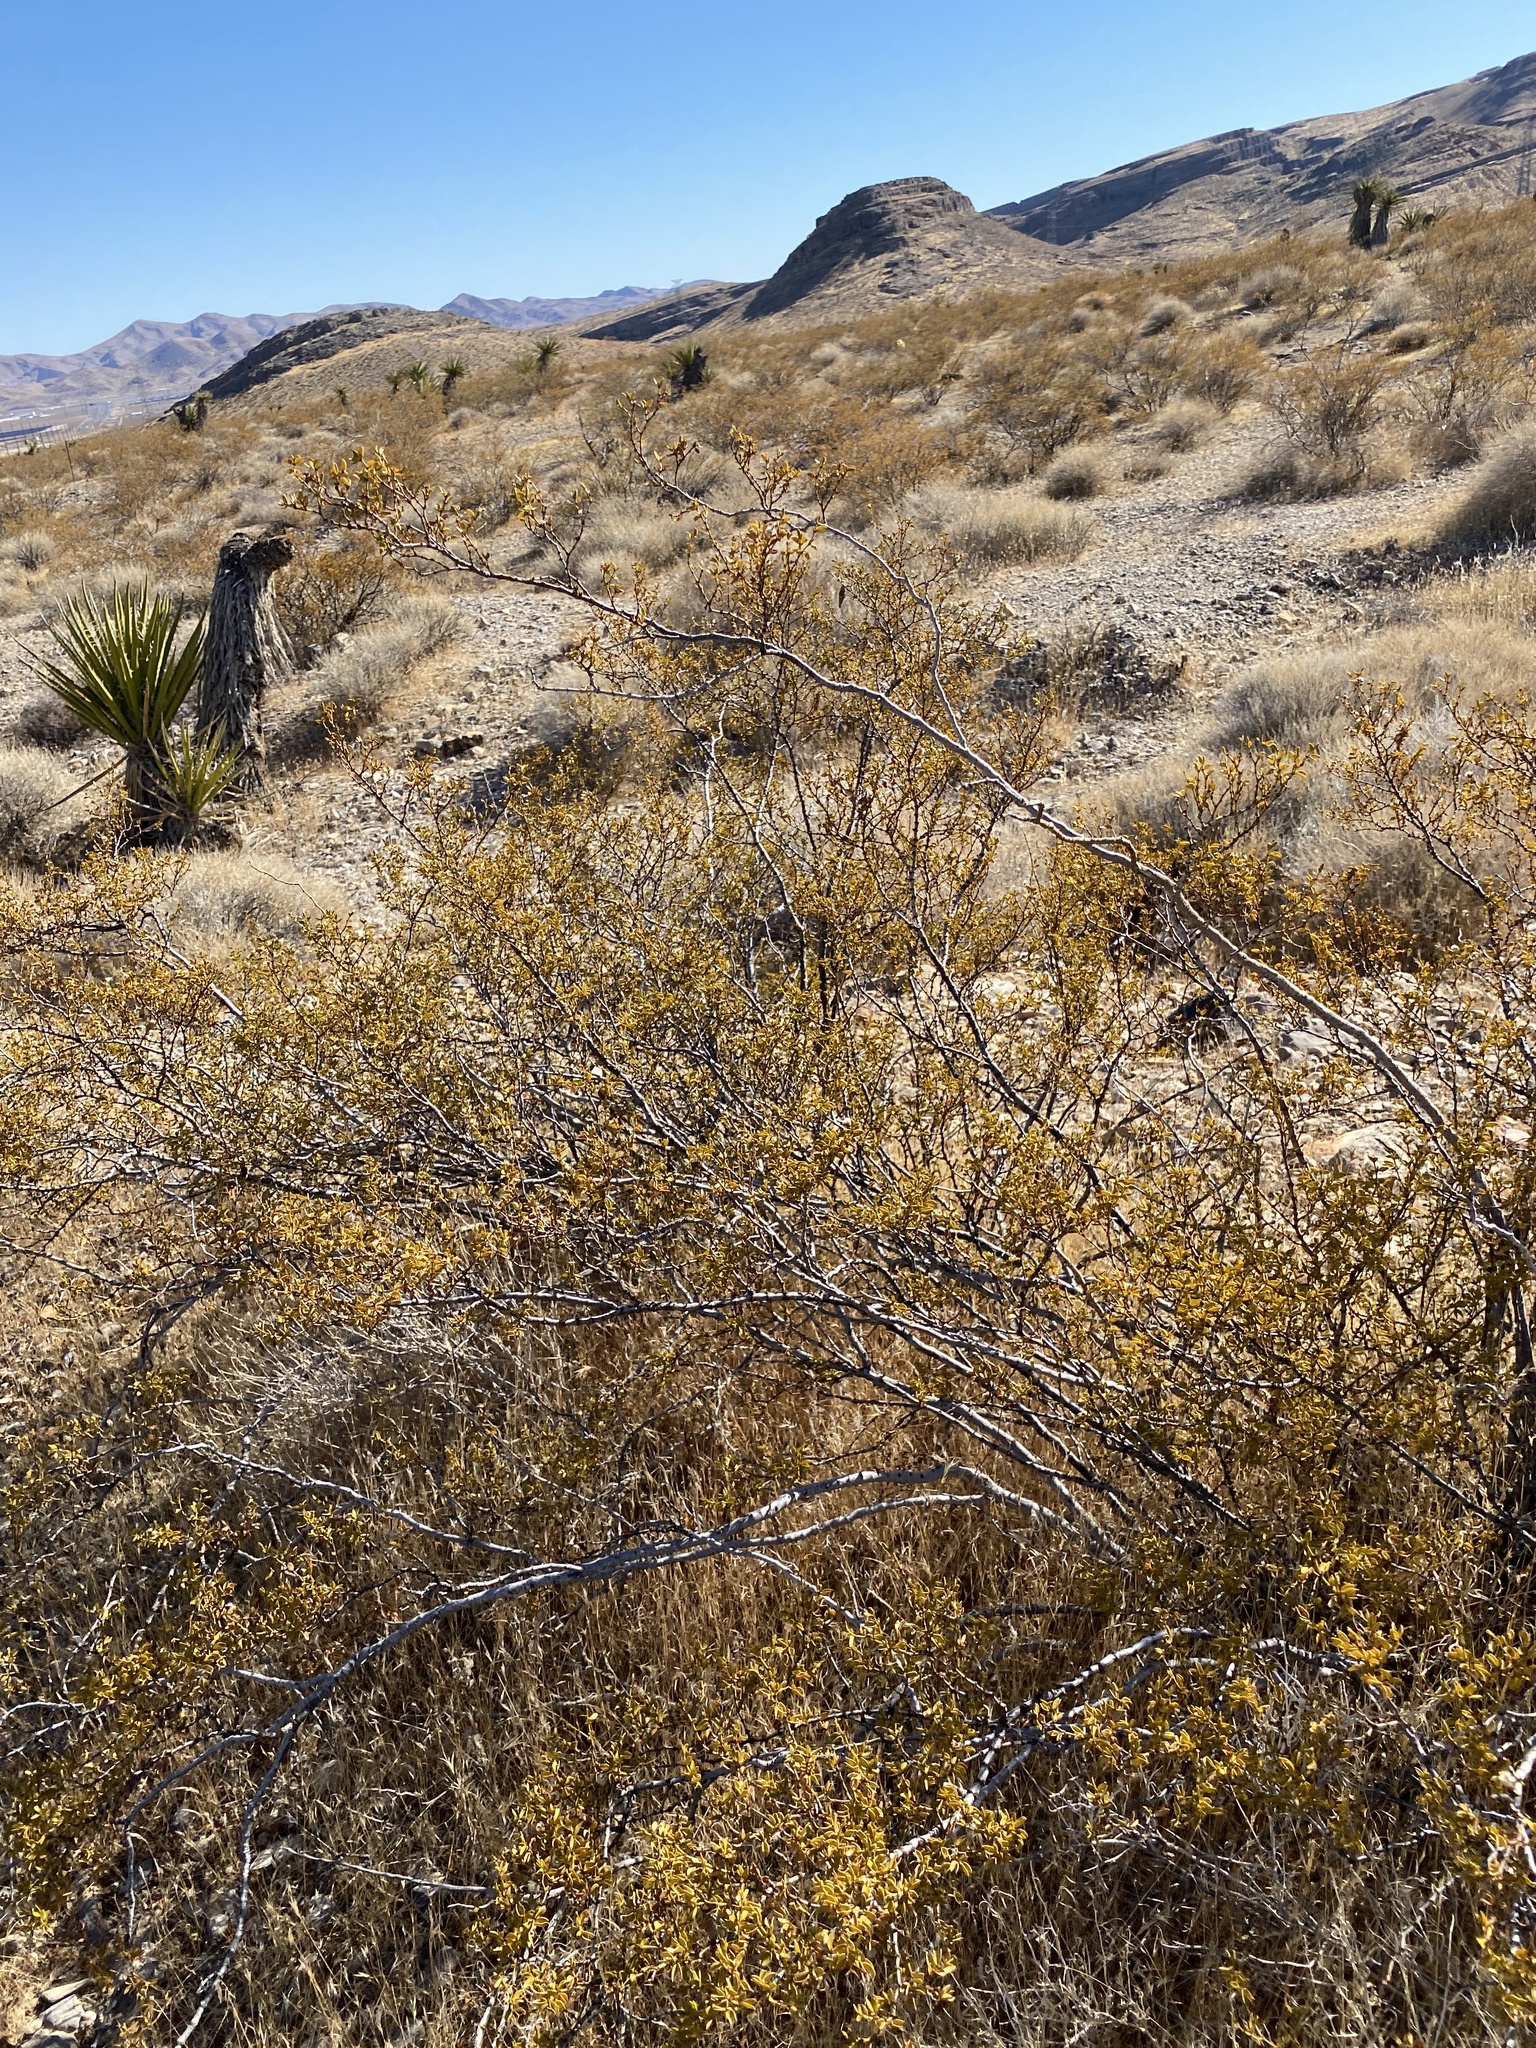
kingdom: Plantae
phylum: Tracheophyta
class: Magnoliopsida
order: Zygophyllales
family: Zygophyllaceae
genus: Larrea
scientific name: Larrea tridentata
